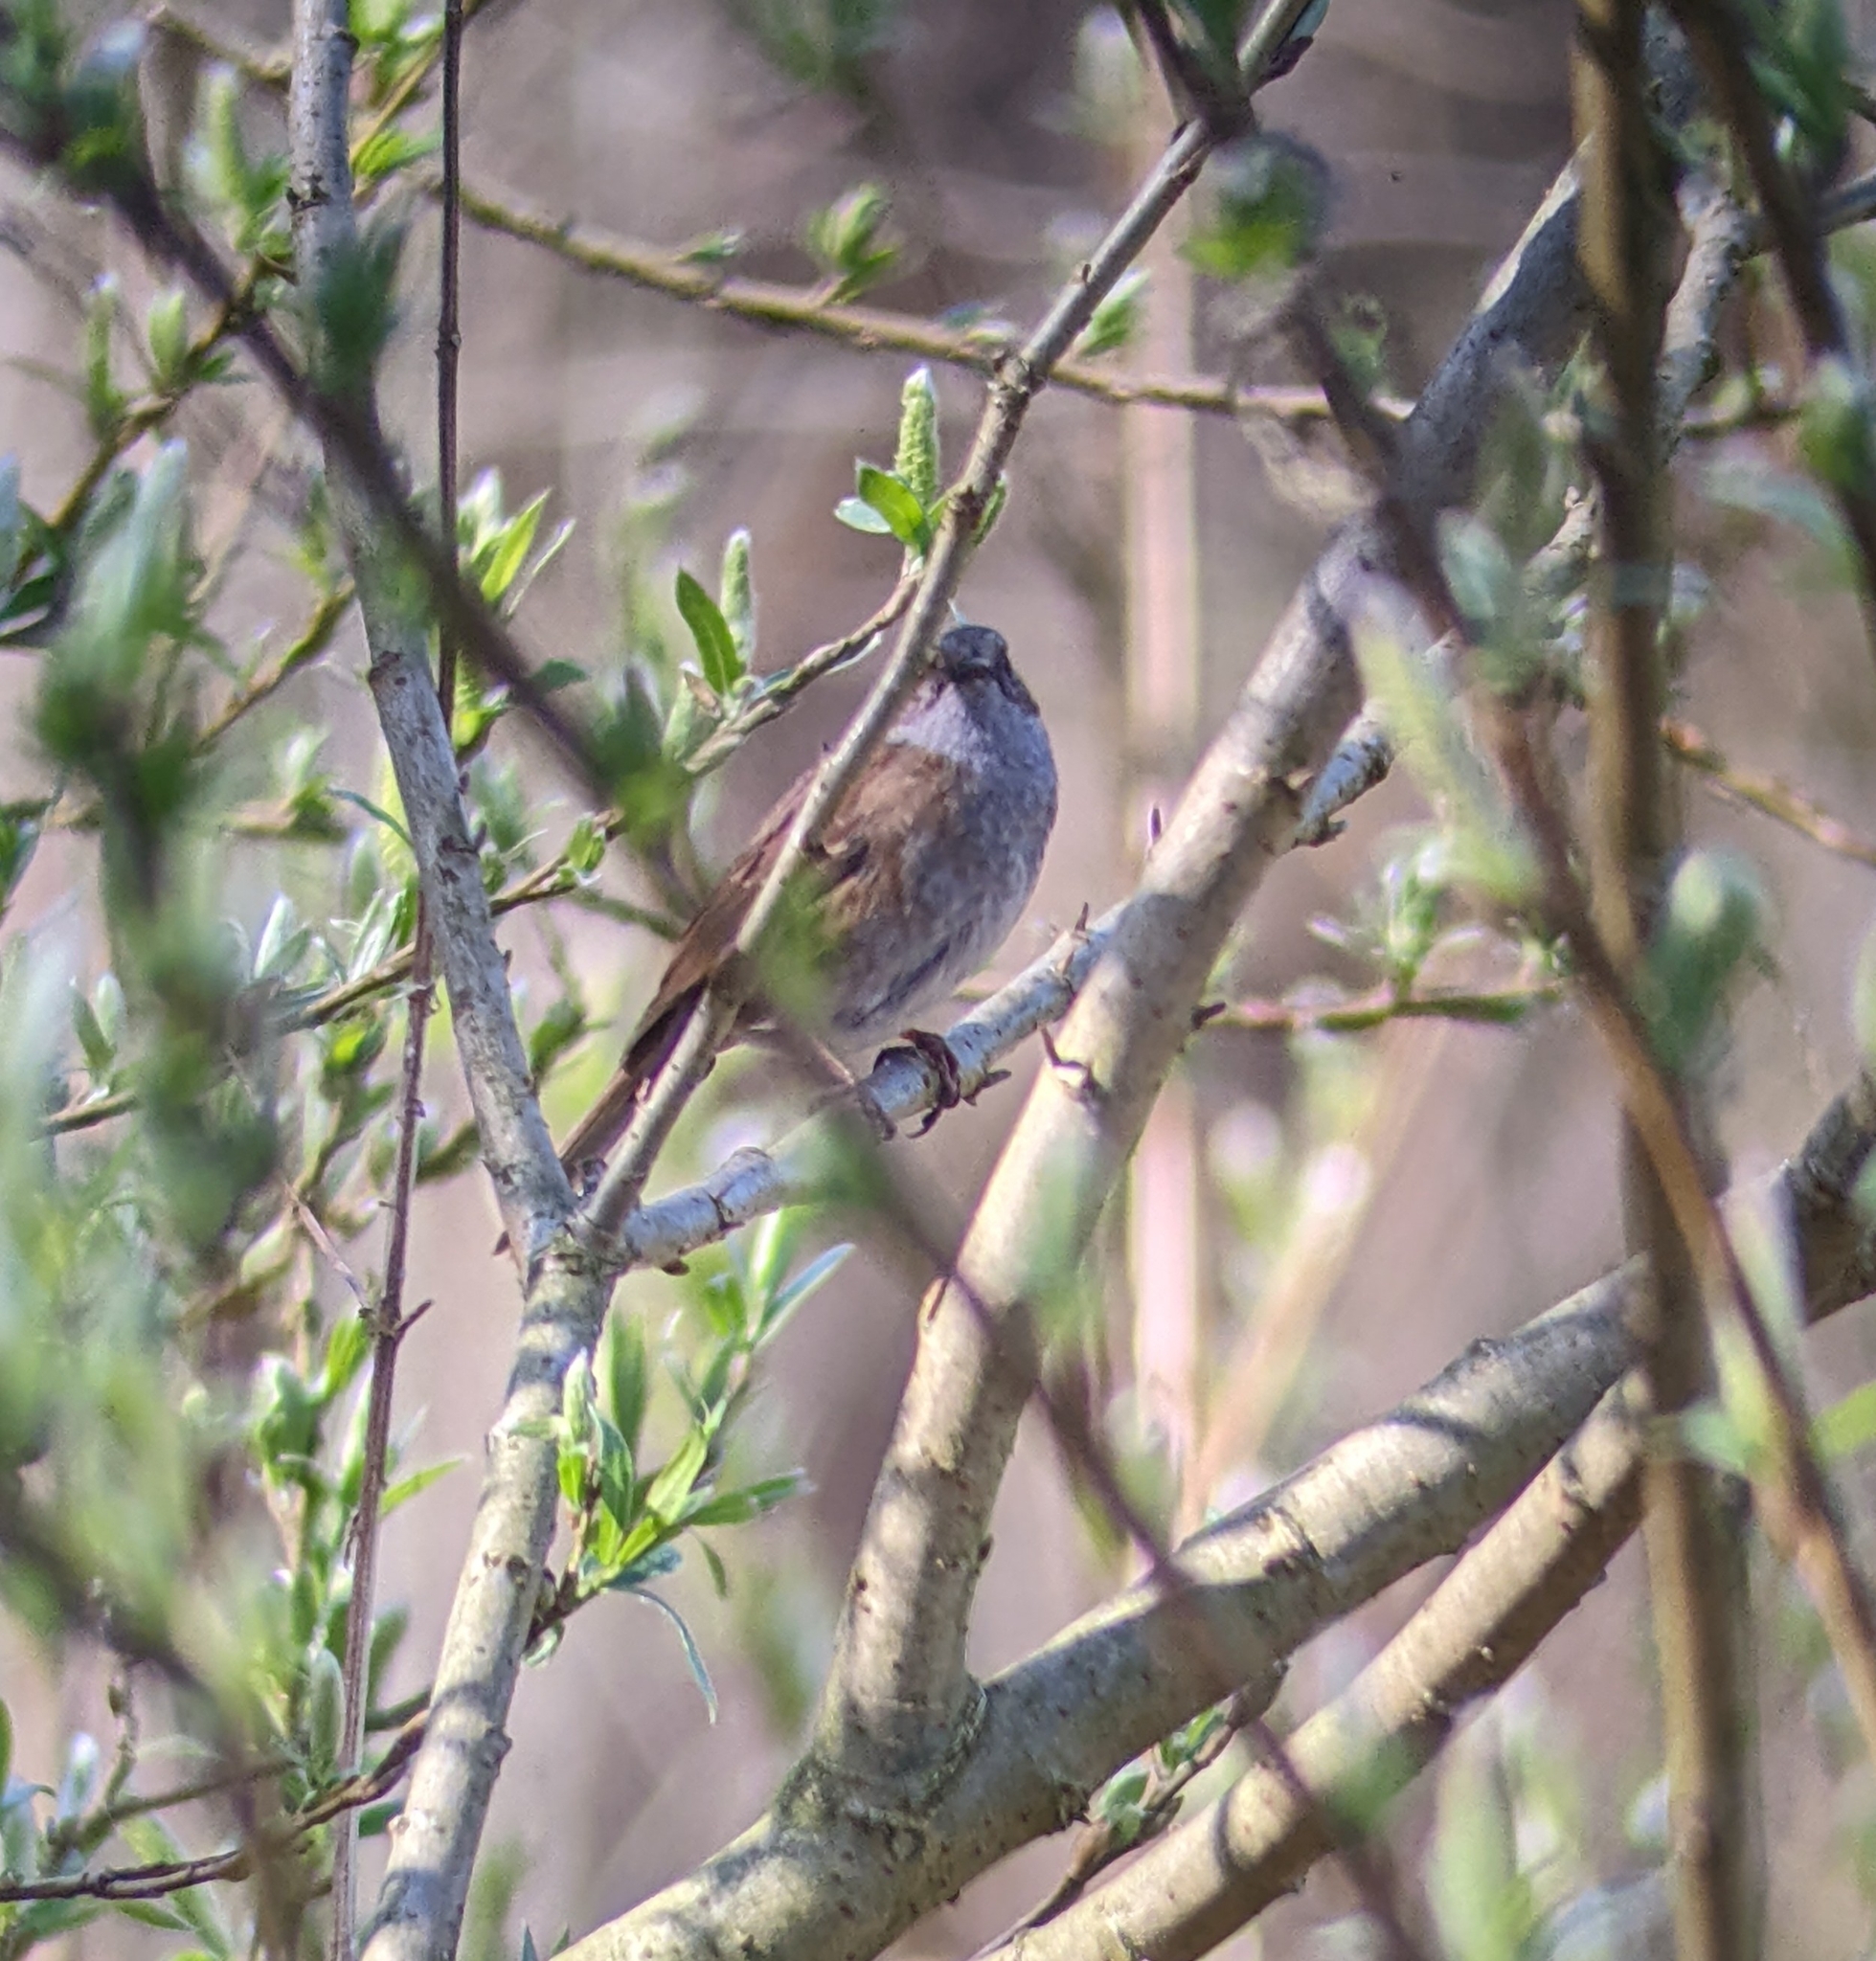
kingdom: Animalia
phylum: Chordata
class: Aves
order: Passeriformes
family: Prunellidae
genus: Prunella
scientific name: Prunella modularis
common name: Dunnock
